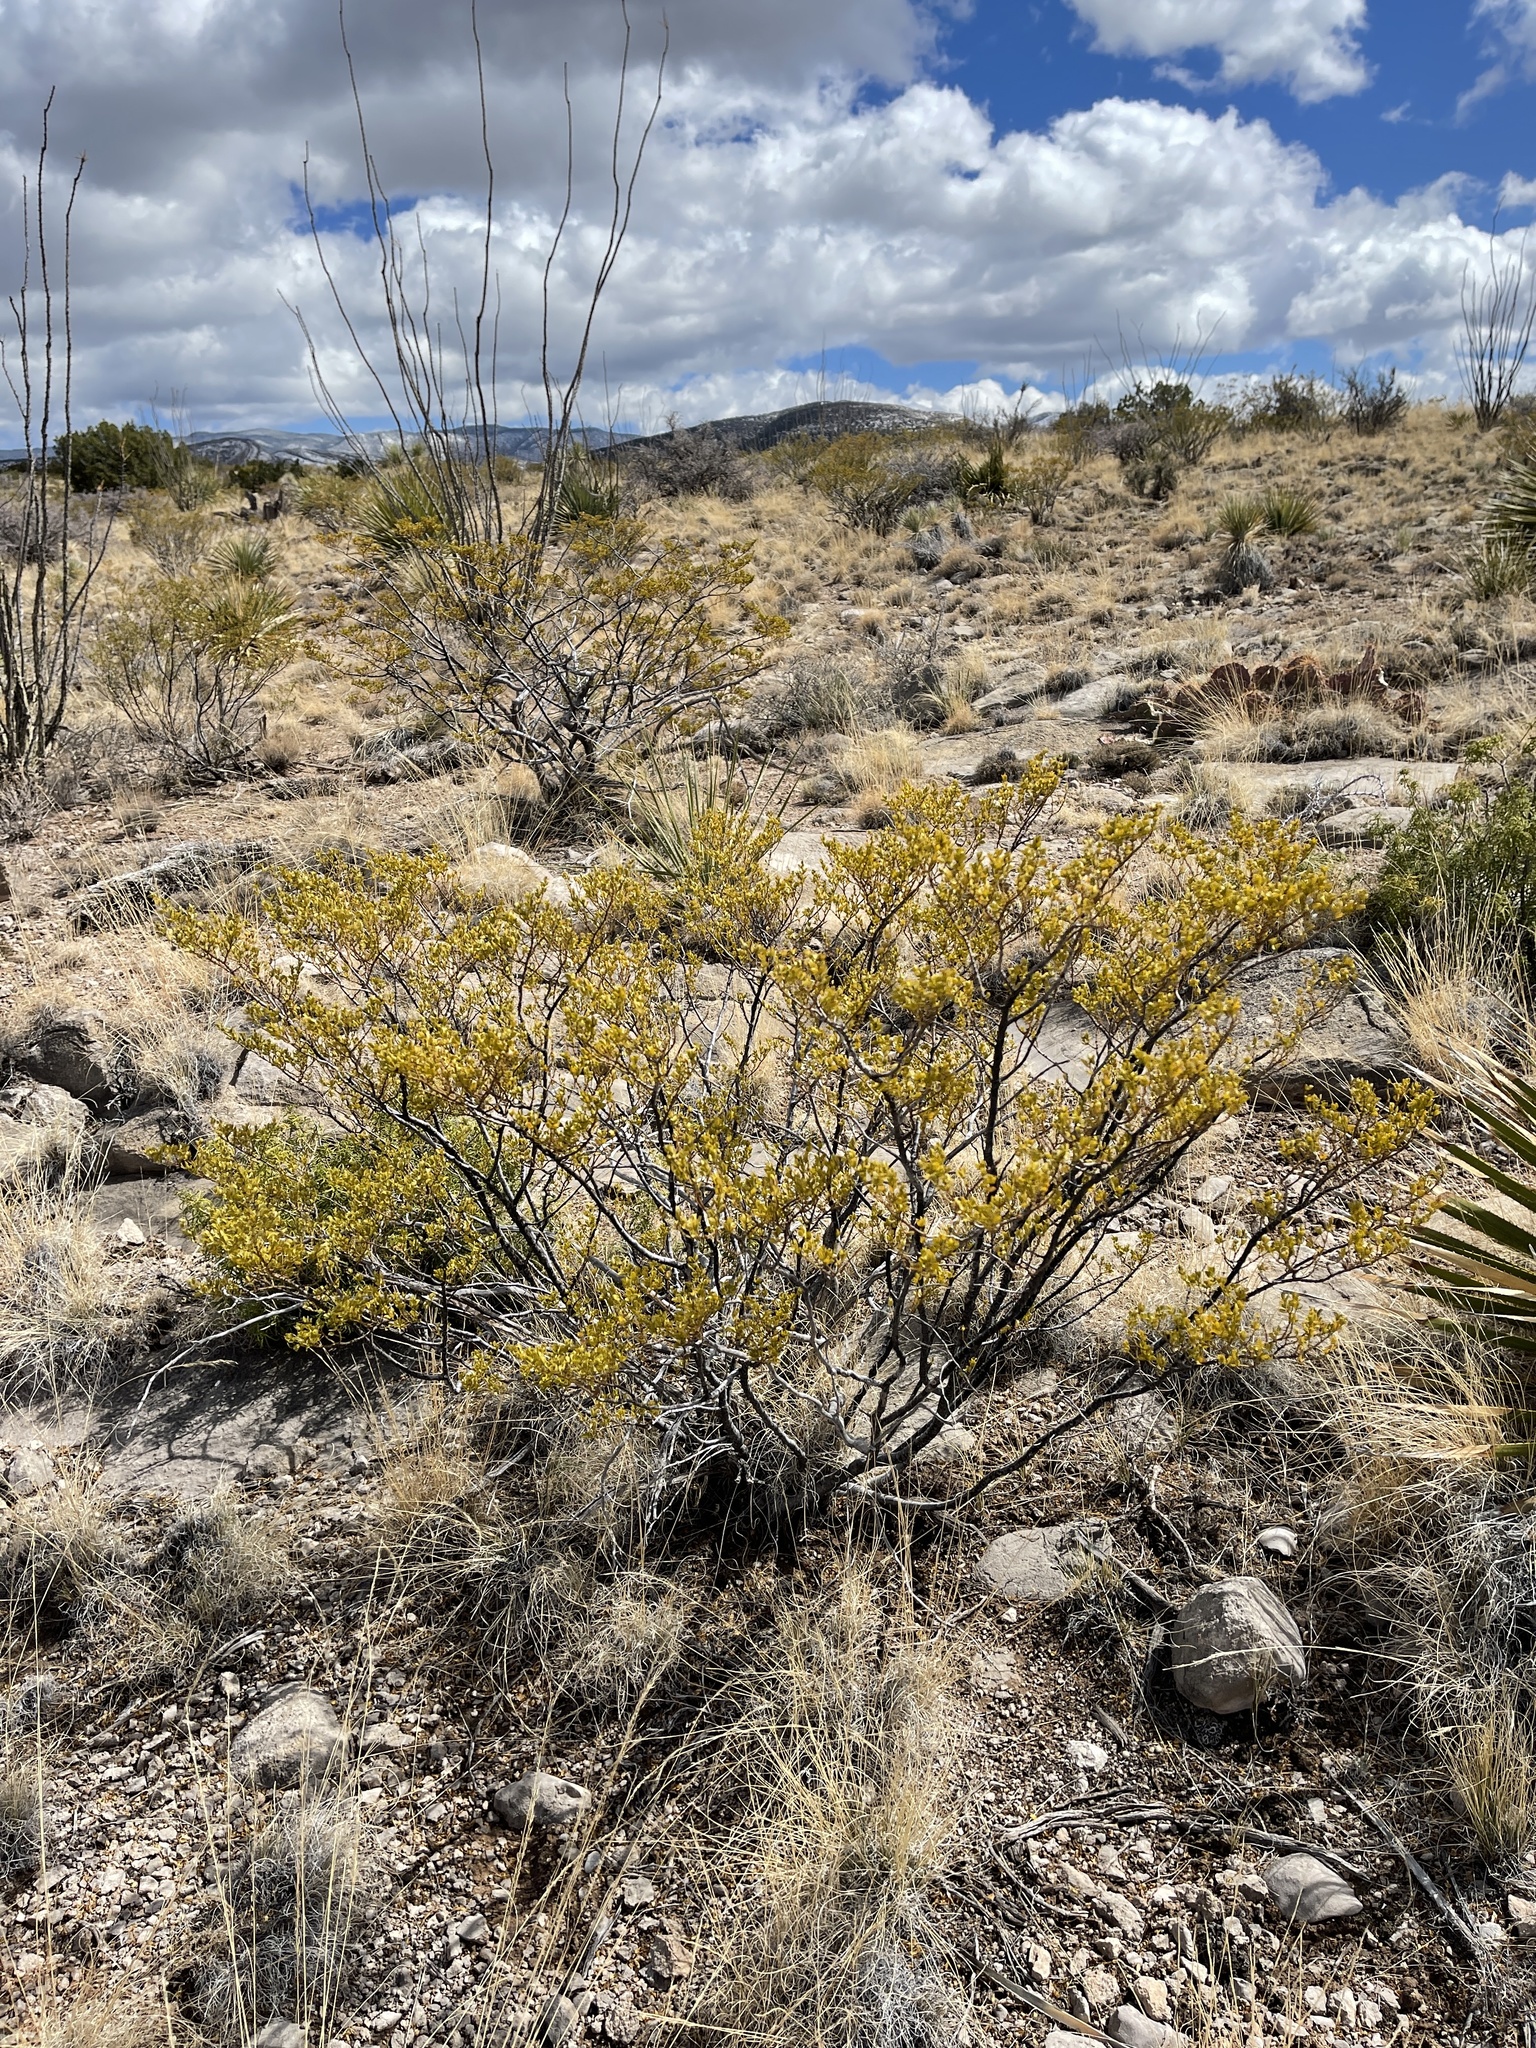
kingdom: Plantae
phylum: Tracheophyta
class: Magnoliopsida
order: Zygophyllales
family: Zygophyllaceae
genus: Larrea
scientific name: Larrea tridentata
